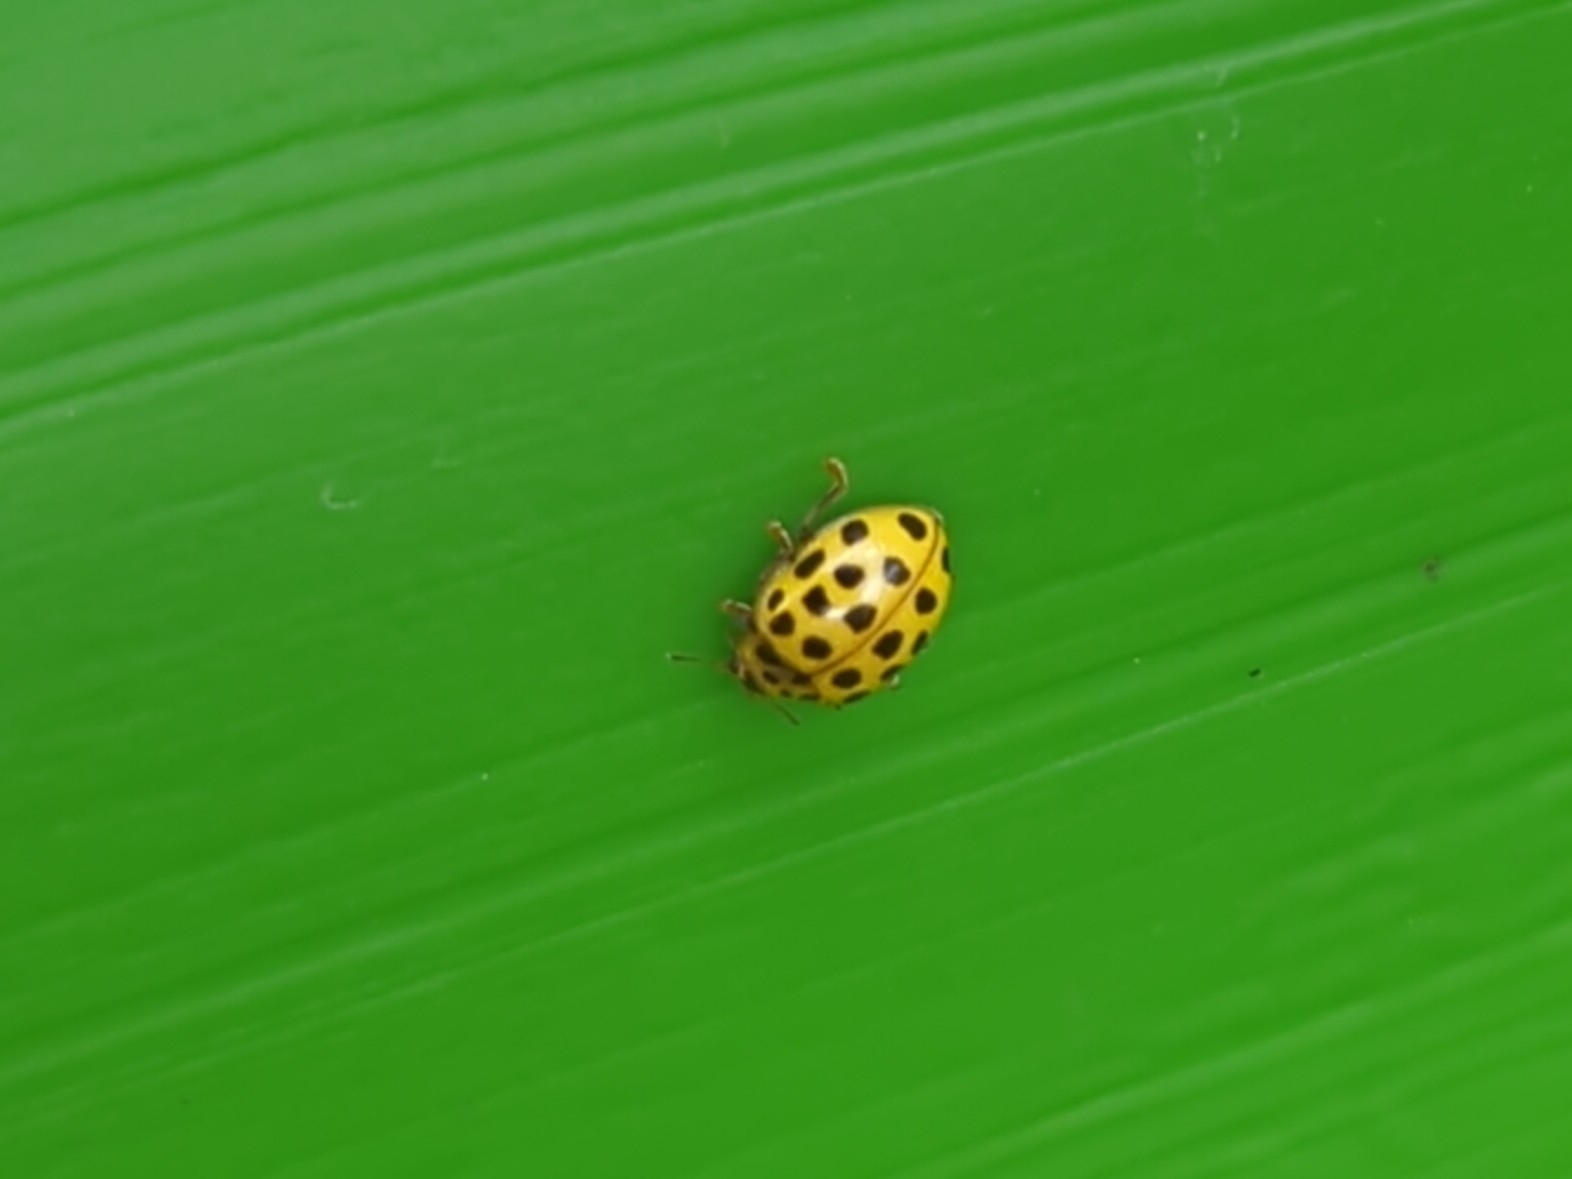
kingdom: Animalia
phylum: Arthropoda
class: Insecta
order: Coleoptera
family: Coccinellidae
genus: Psyllobora
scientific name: Psyllobora vigintiduopunctata
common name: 22-spot ladybird
